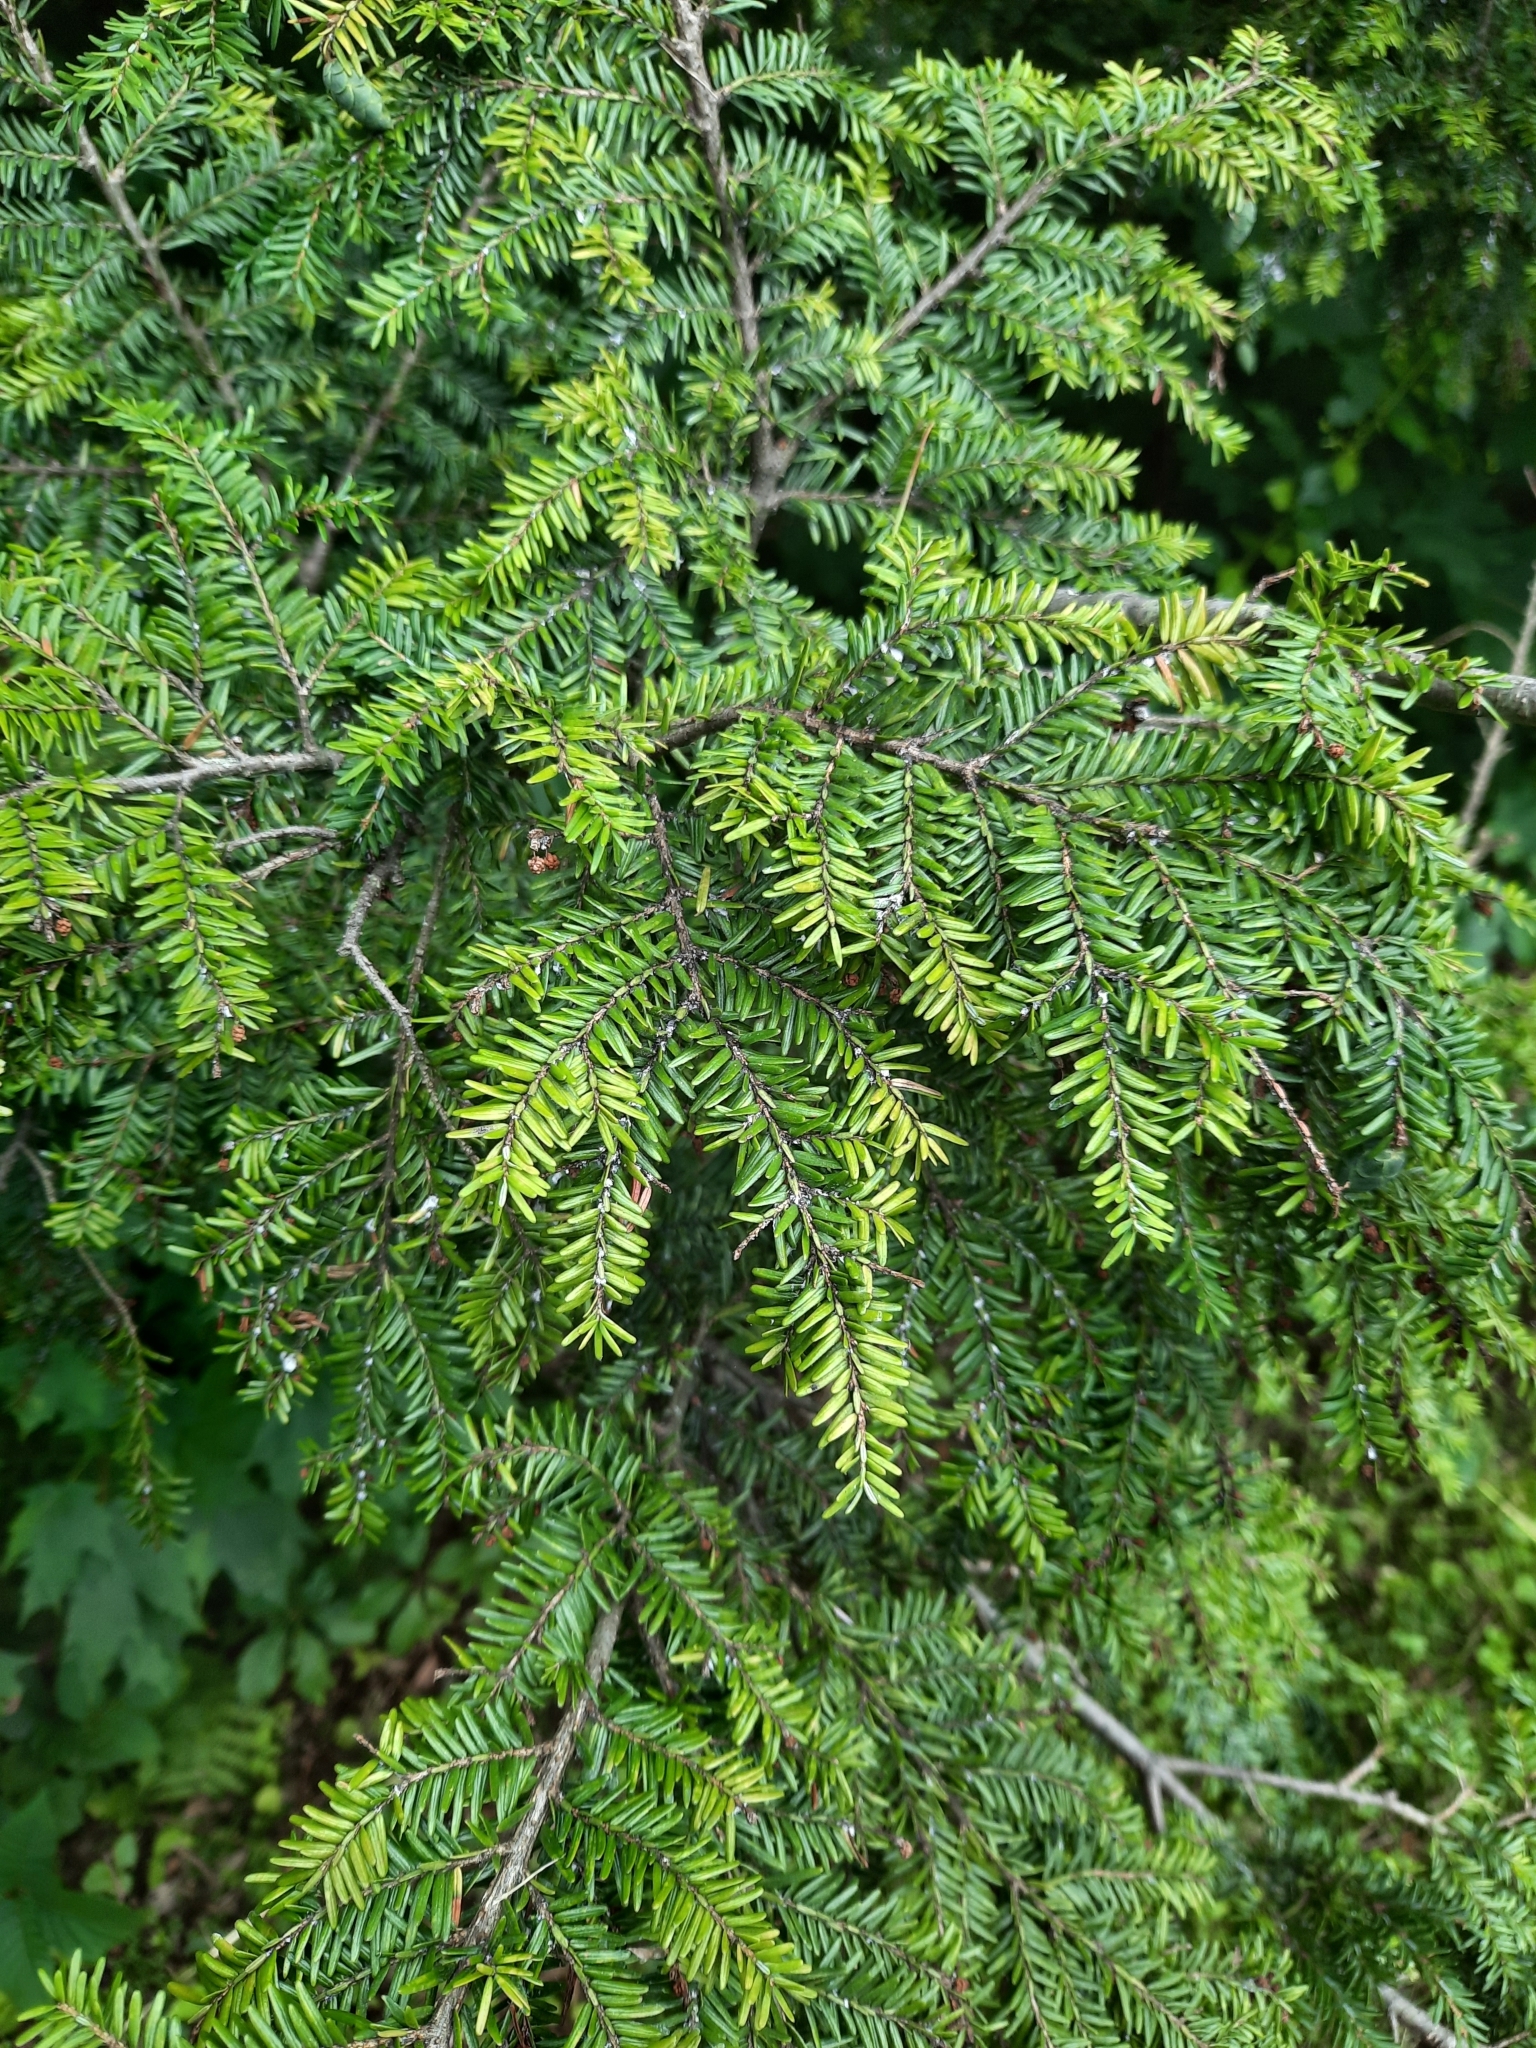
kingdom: Plantae
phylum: Tracheophyta
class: Pinopsida
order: Pinales
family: Pinaceae
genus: Tsuga
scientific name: Tsuga canadensis
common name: Eastern hemlock
